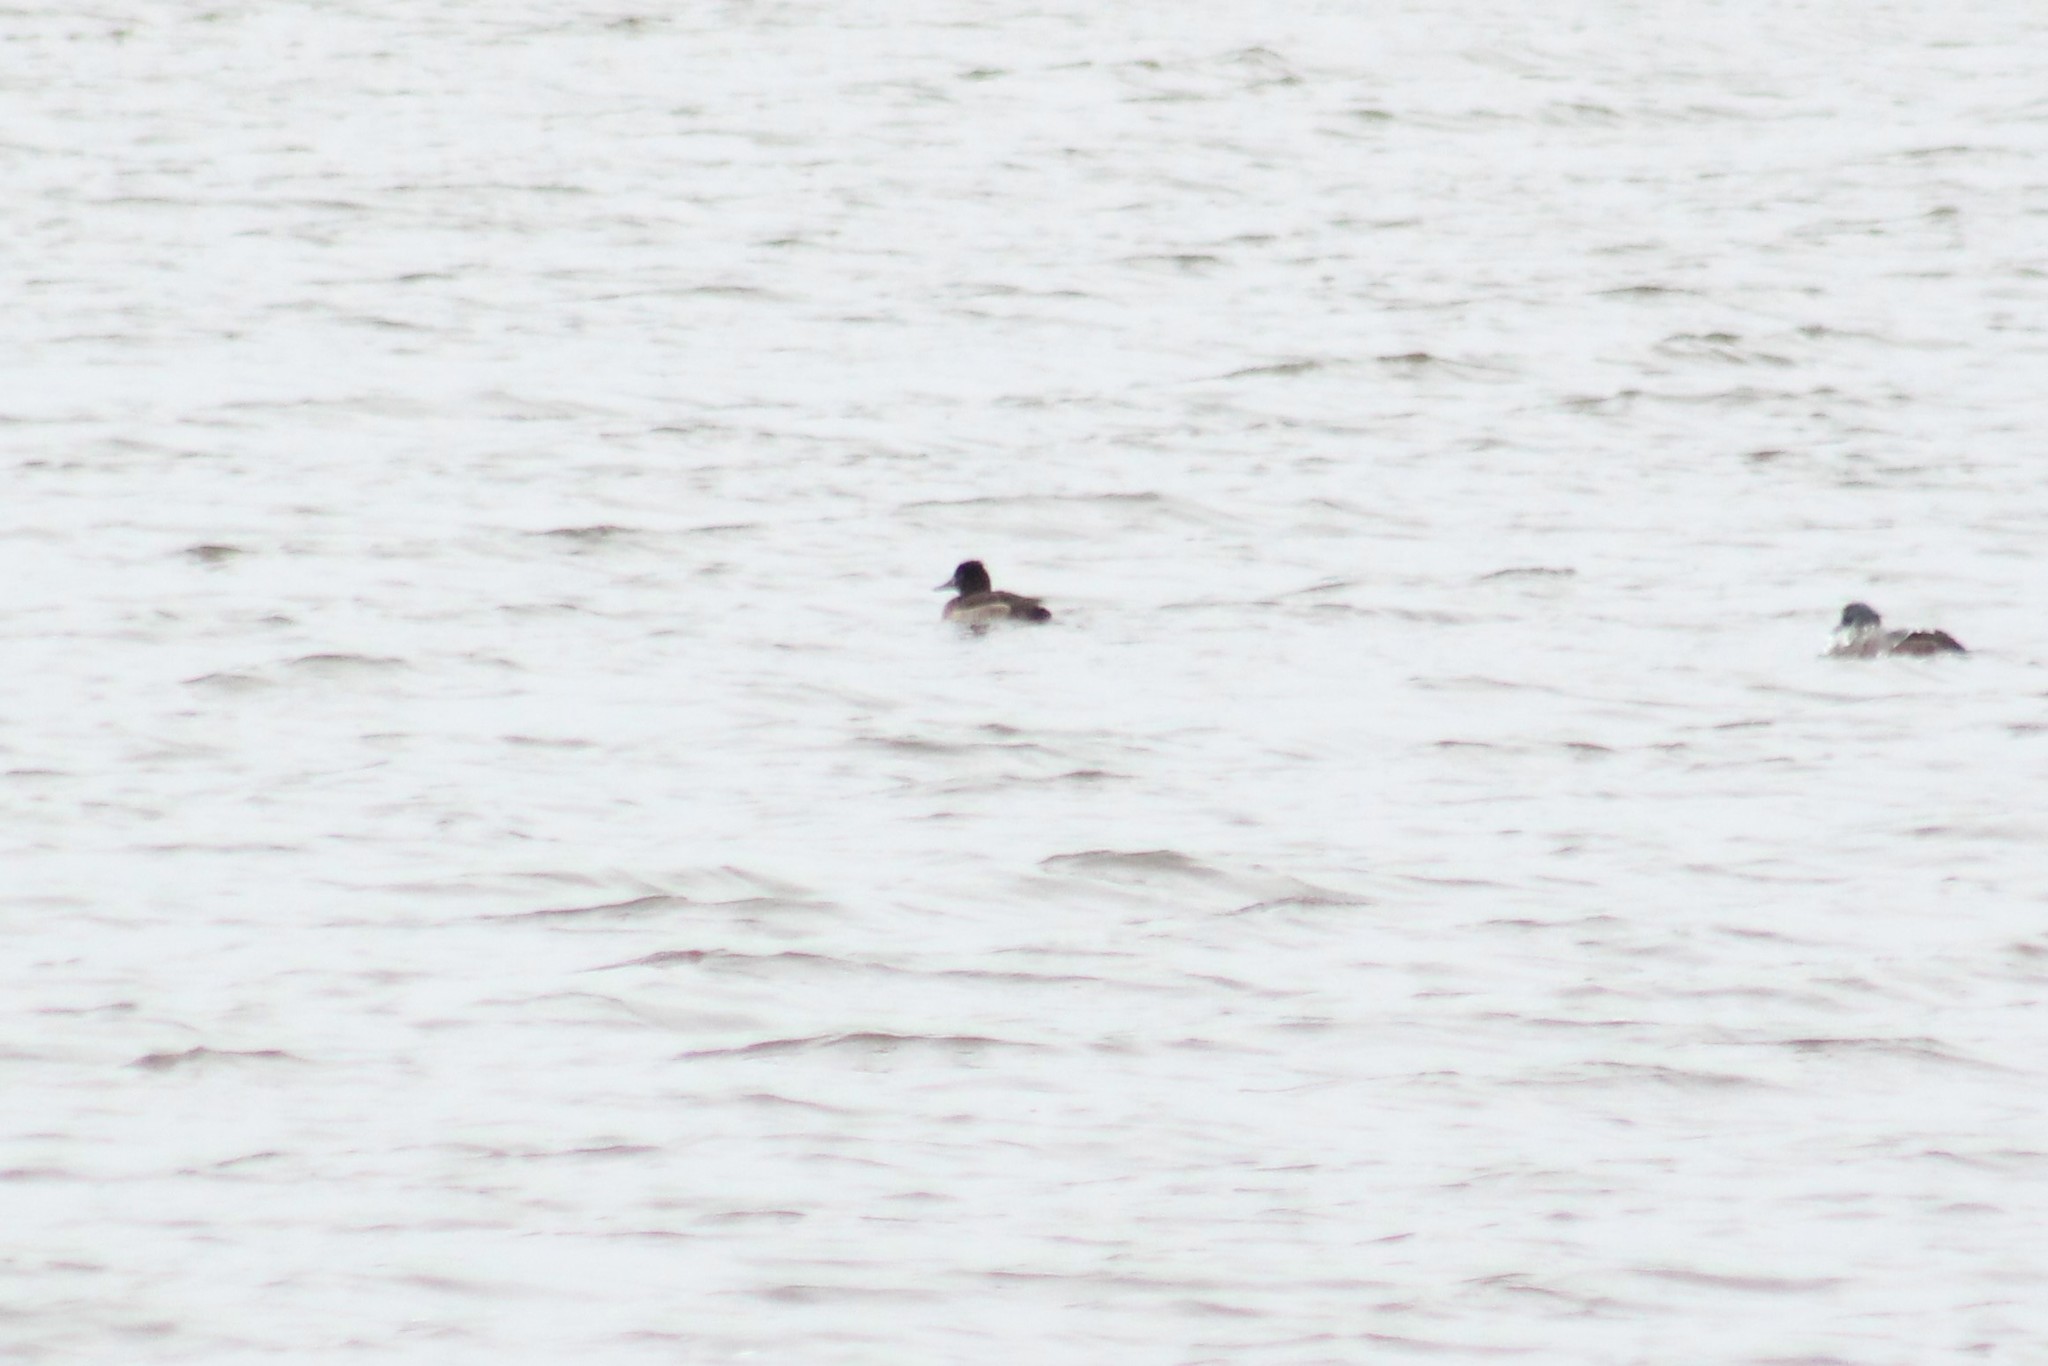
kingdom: Animalia
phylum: Chordata
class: Aves
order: Anseriformes
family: Anatidae
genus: Aythya
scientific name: Aythya fuligula
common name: Tufted duck
